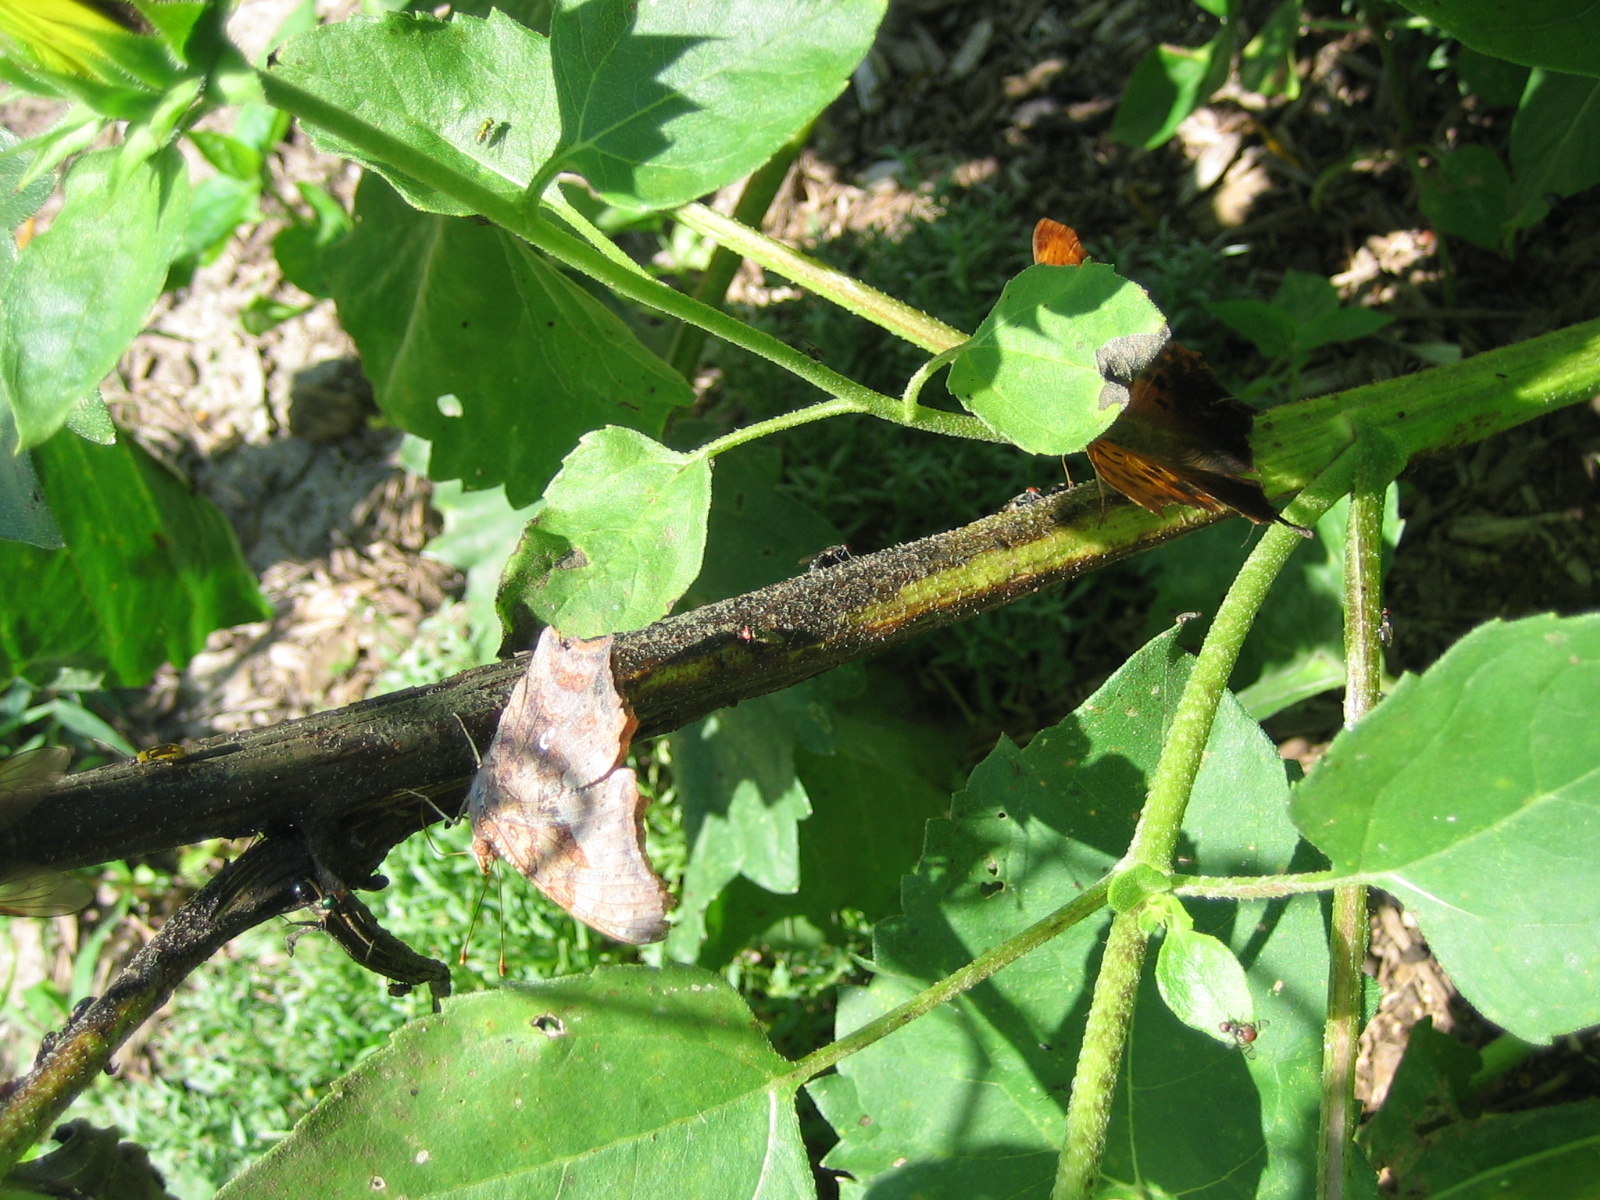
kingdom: Animalia
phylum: Arthropoda
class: Insecta
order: Lepidoptera
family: Nymphalidae
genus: Polygonia
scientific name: Polygonia interrogationis
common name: Question mark
